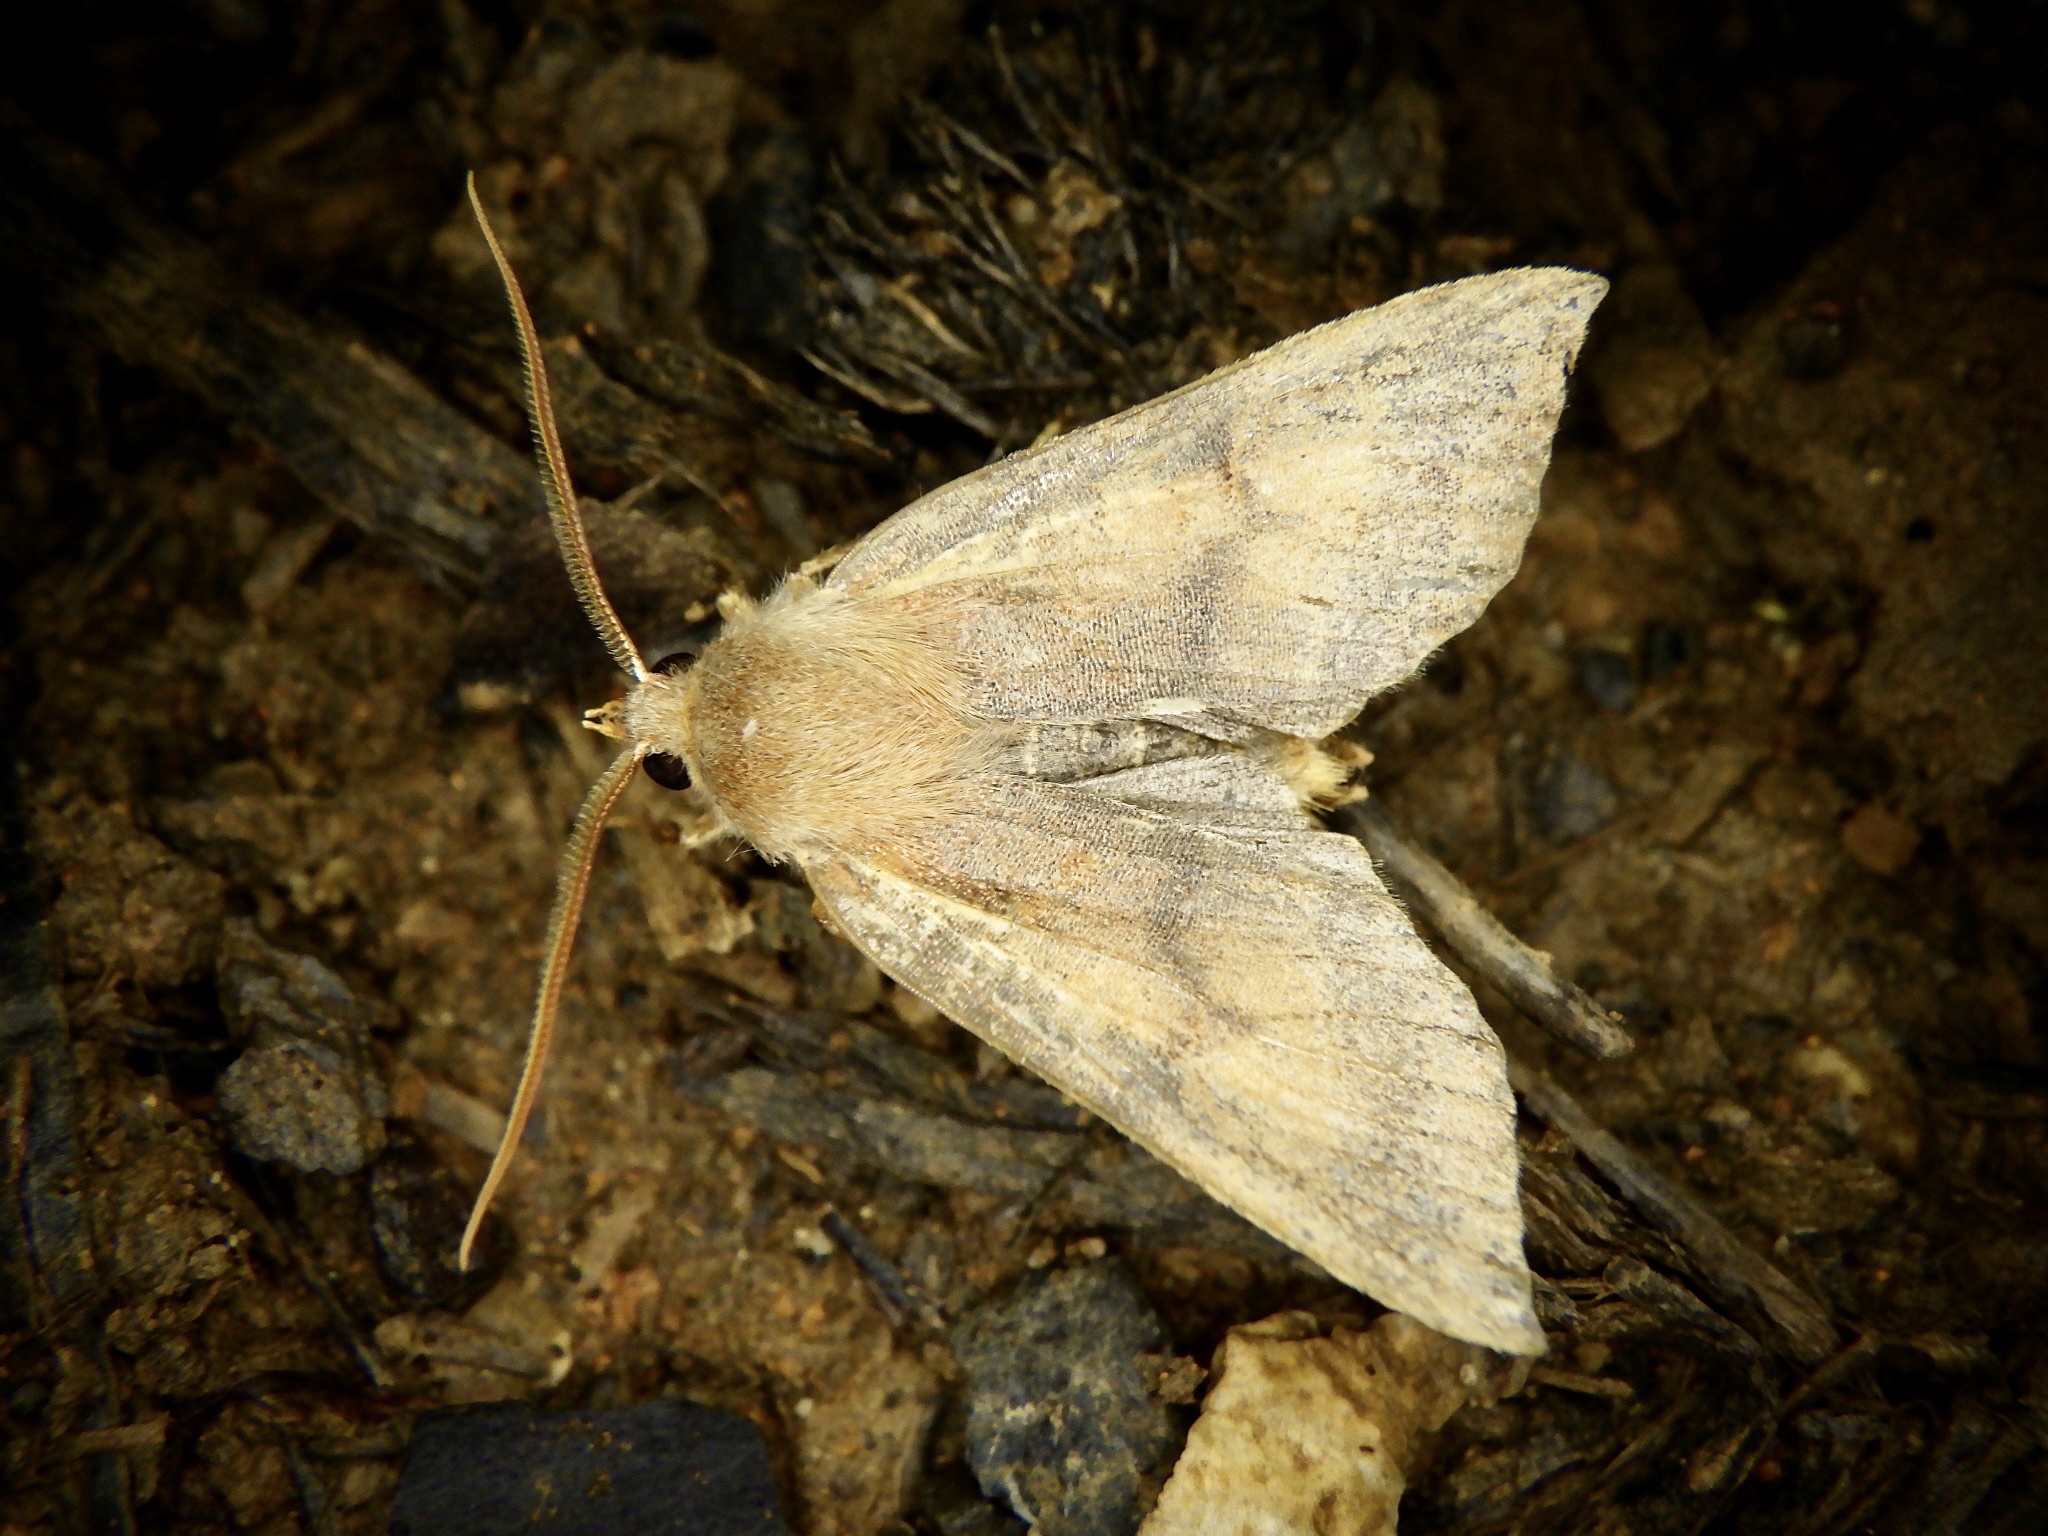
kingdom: Animalia
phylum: Arthropoda
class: Insecta
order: Lepidoptera
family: Noctuidae
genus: Telorta
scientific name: Telorta edentata
